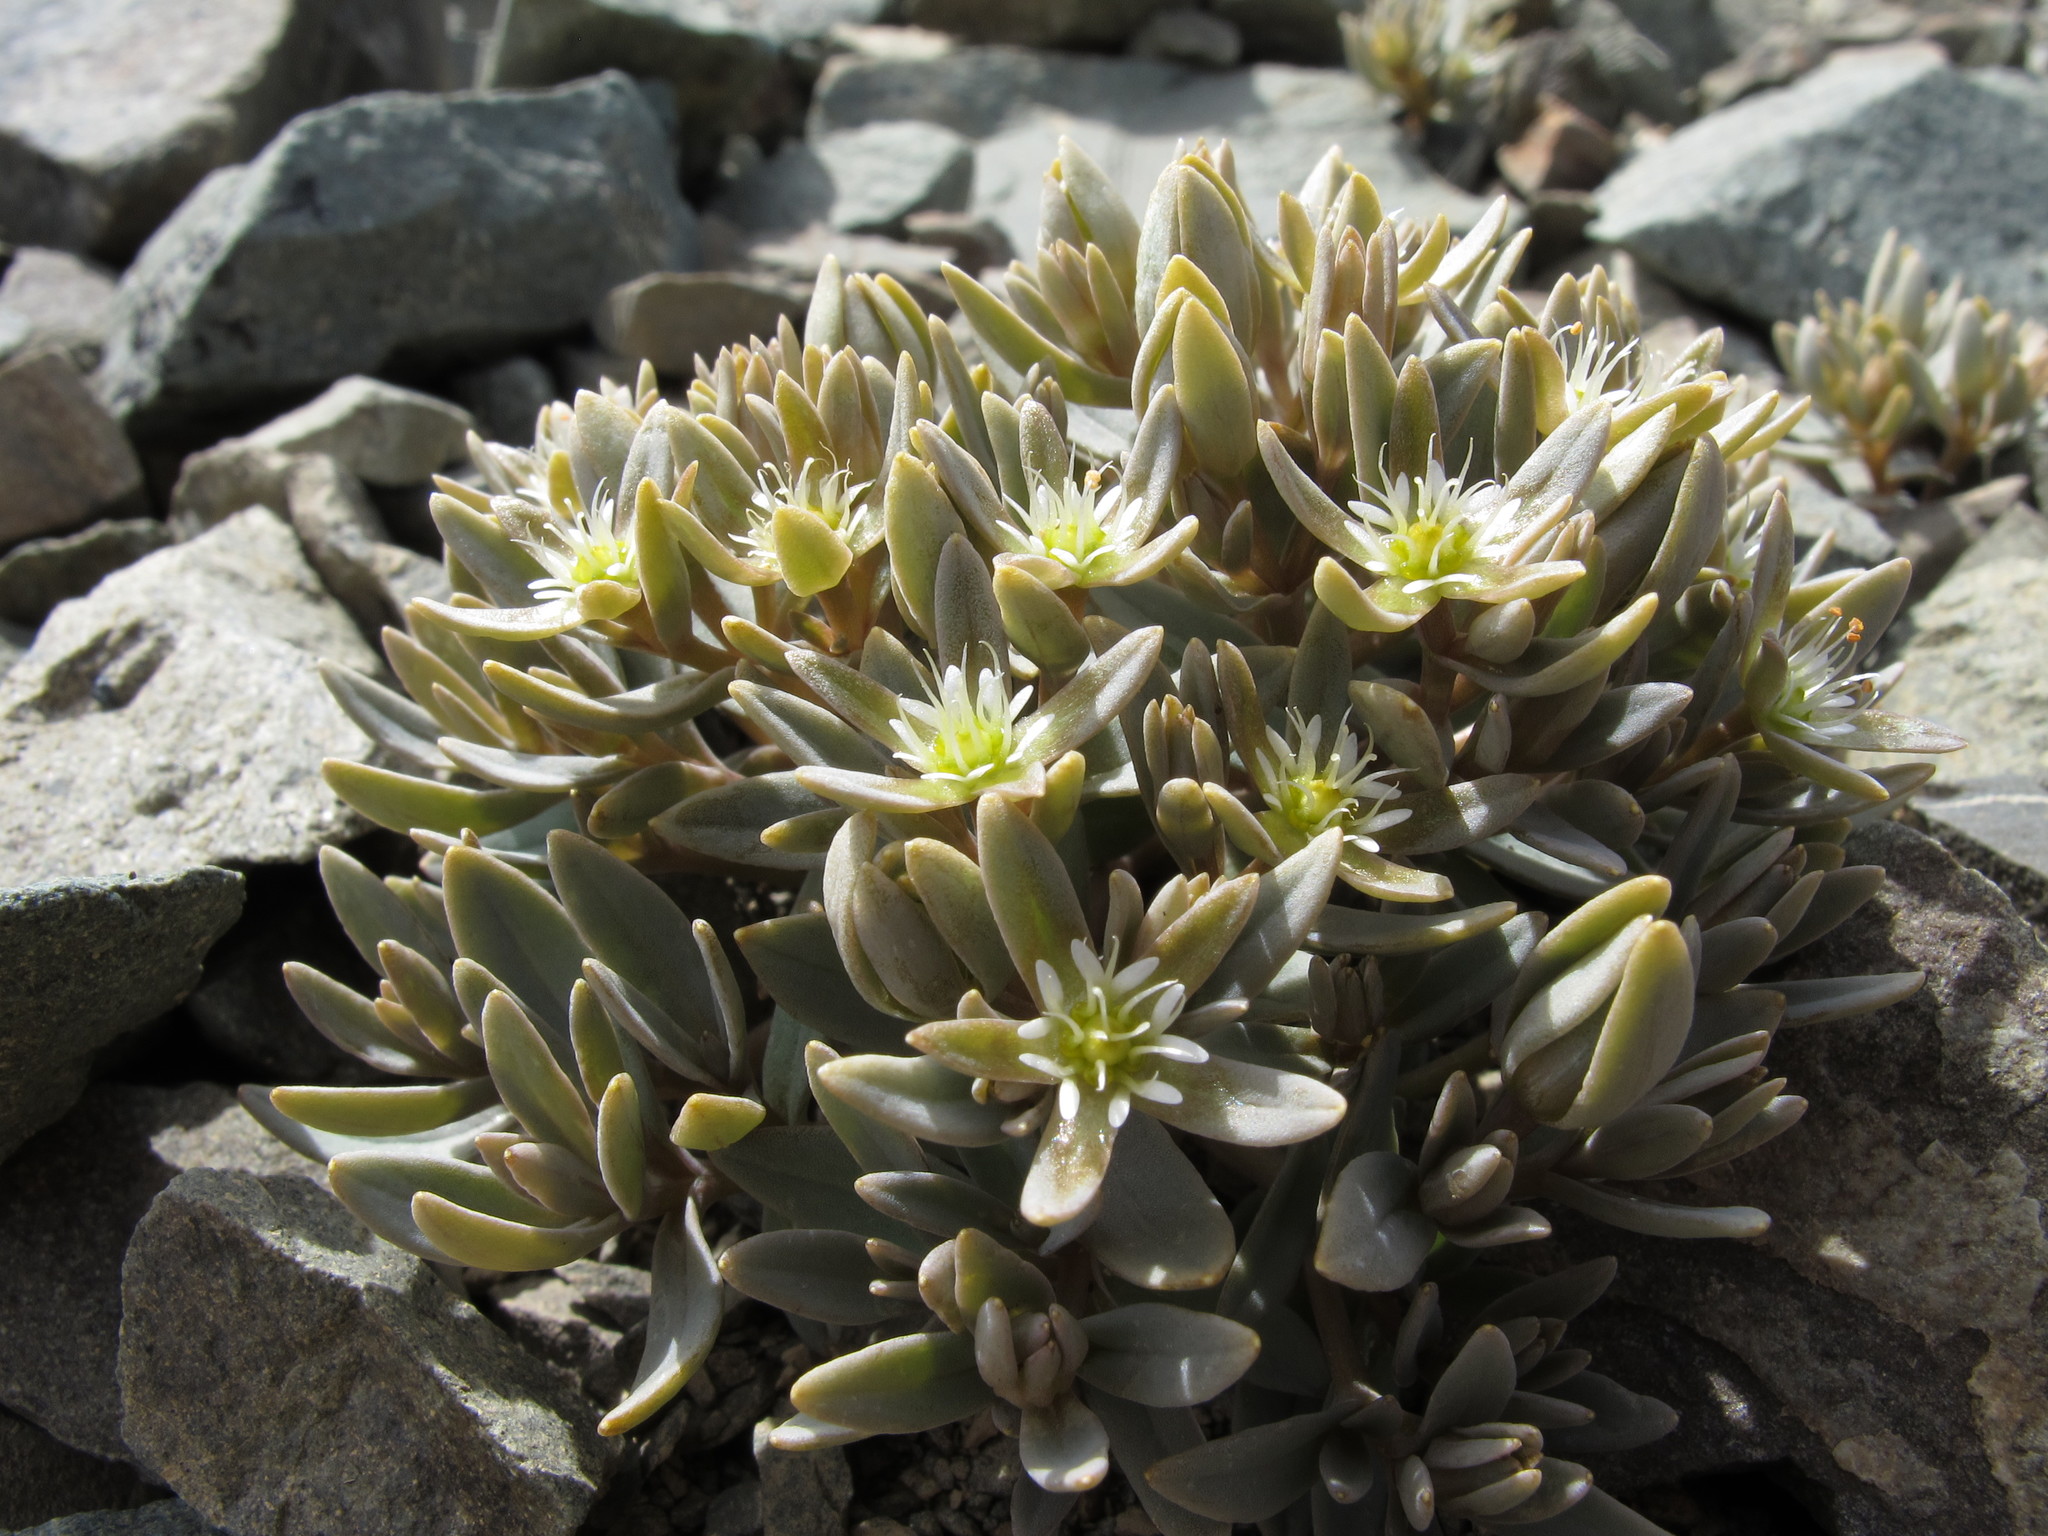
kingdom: Plantae
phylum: Tracheophyta
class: Magnoliopsida
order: Caryophyllales
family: Caryophyllaceae
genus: Stellaria
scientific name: Stellaria roughii
